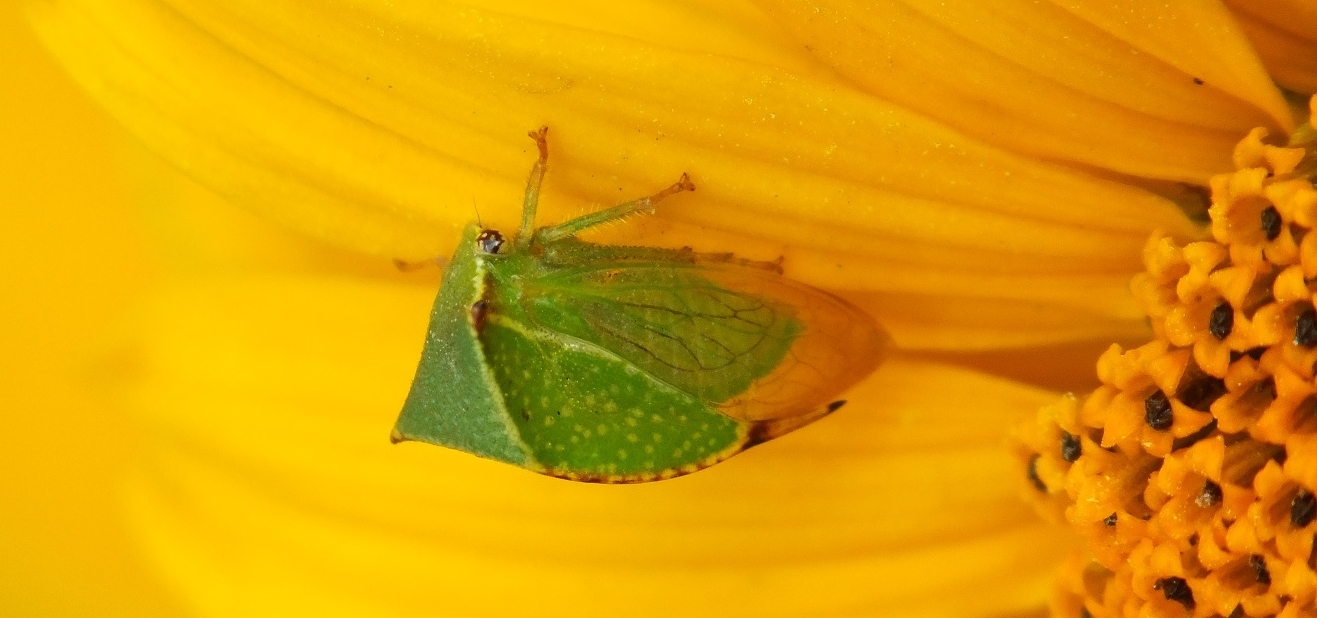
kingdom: Animalia
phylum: Arthropoda
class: Insecta
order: Hemiptera
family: Membracidae
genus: Stictocephala
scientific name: Stictocephala bisonia
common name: American buffalo treehopper
